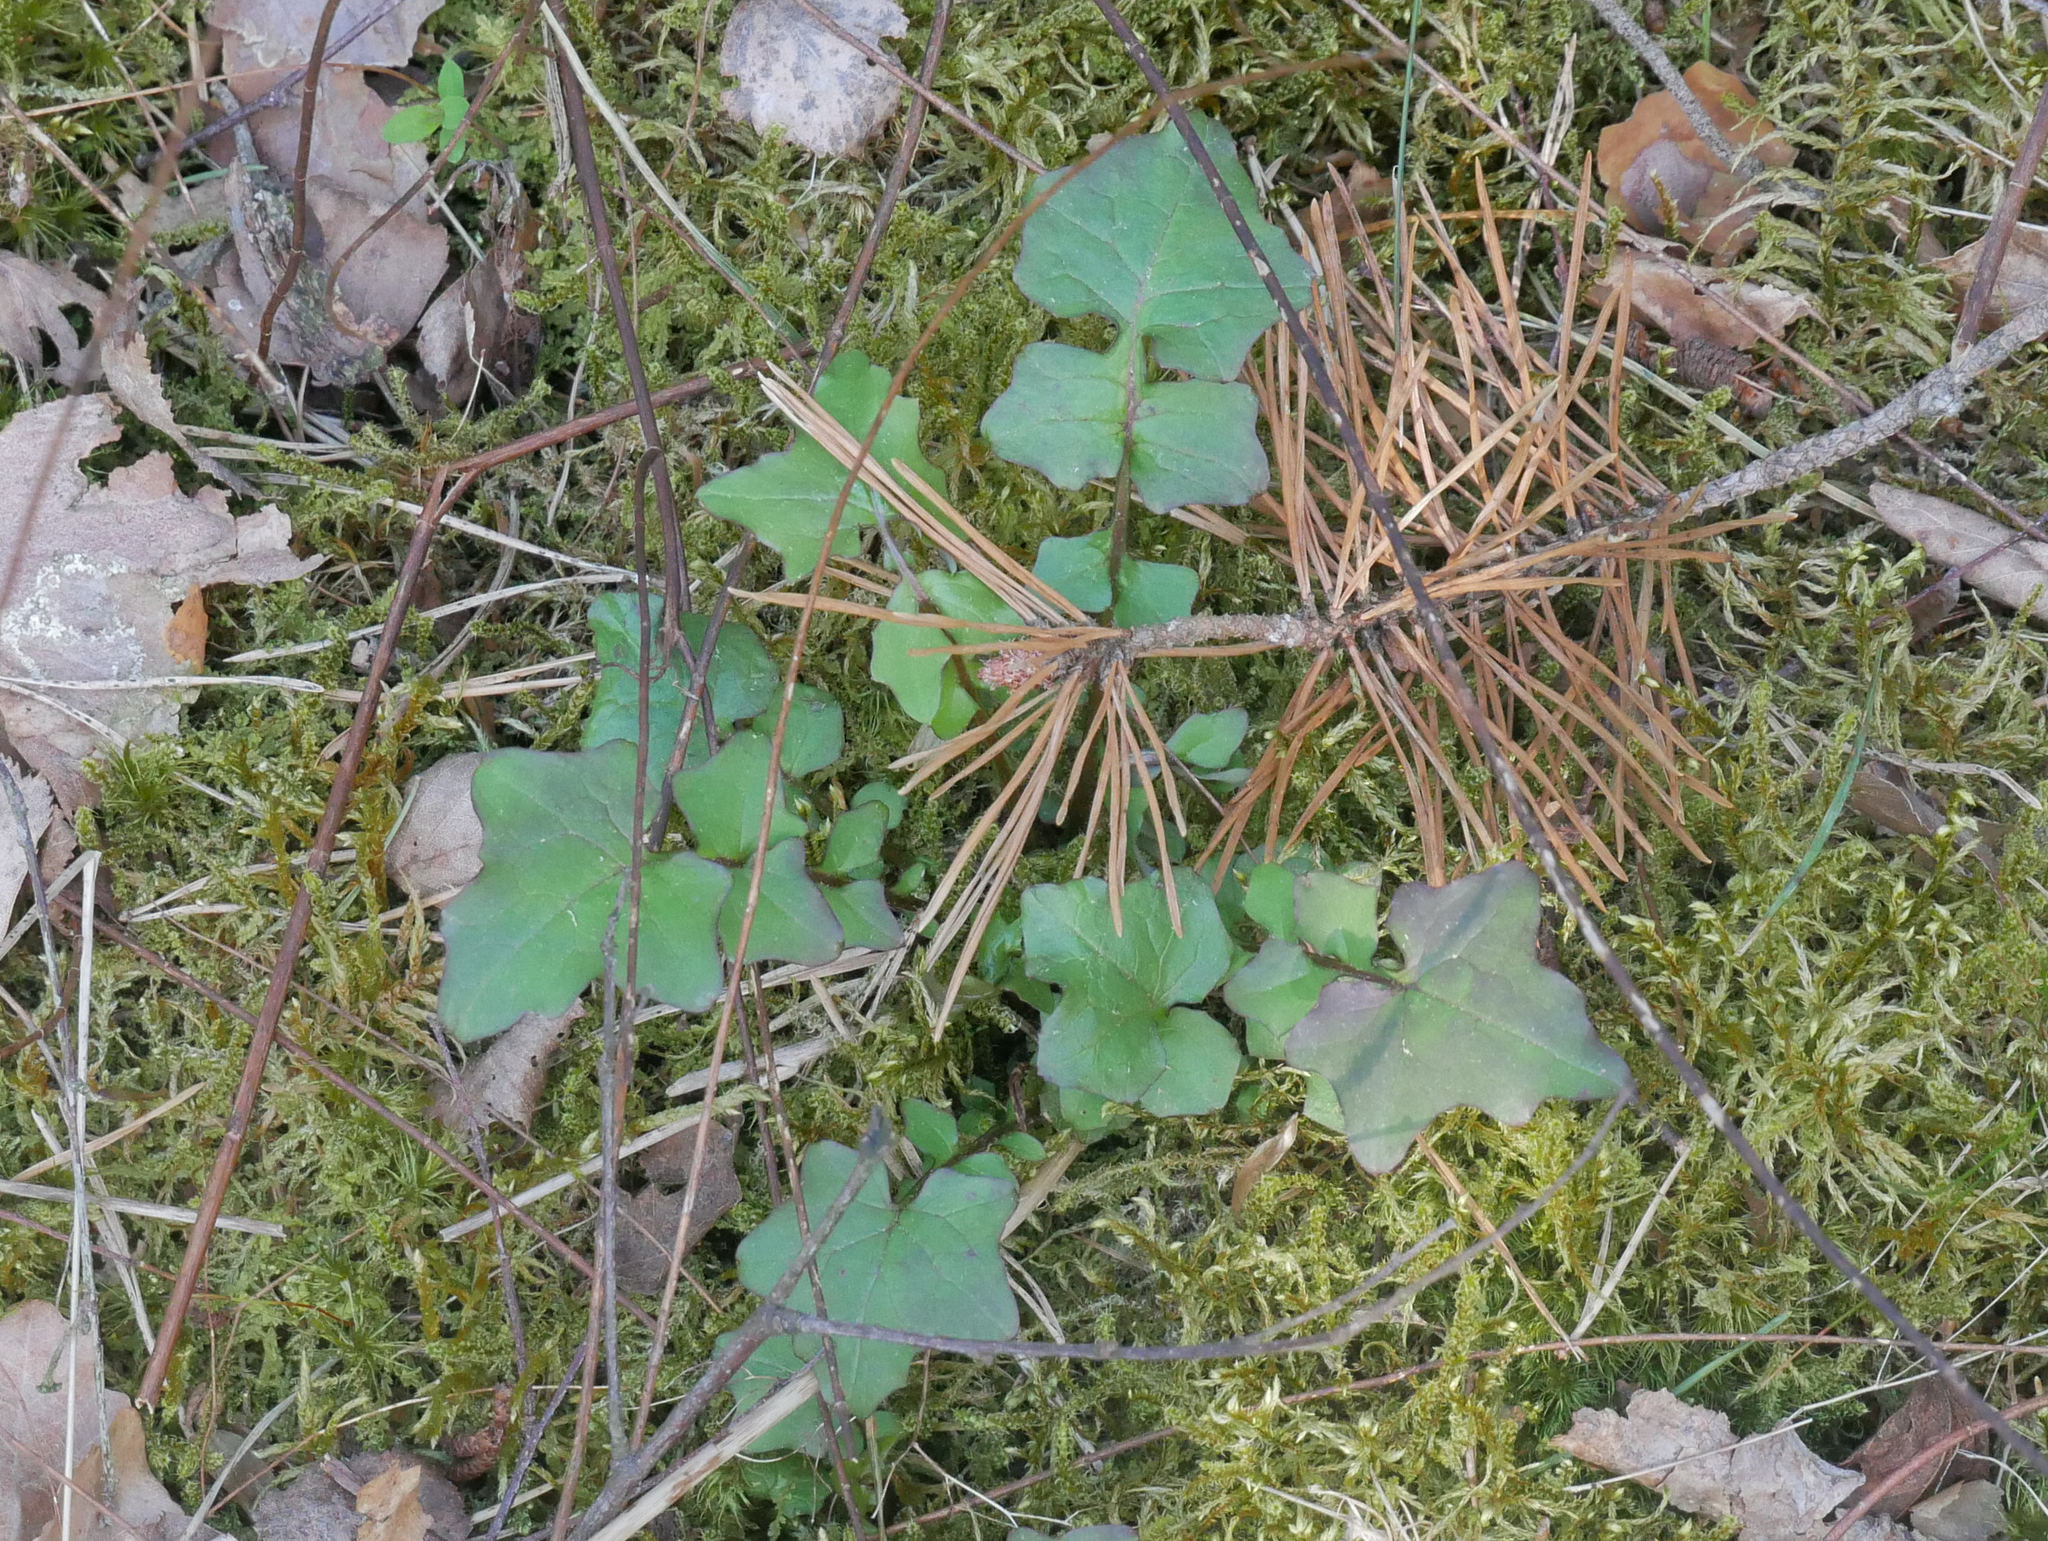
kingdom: Plantae
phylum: Tracheophyta
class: Magnoliopsida
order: Asterales
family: Asteraceae
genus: Mycelis
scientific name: Mycelis muralis
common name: Wall lettuce
